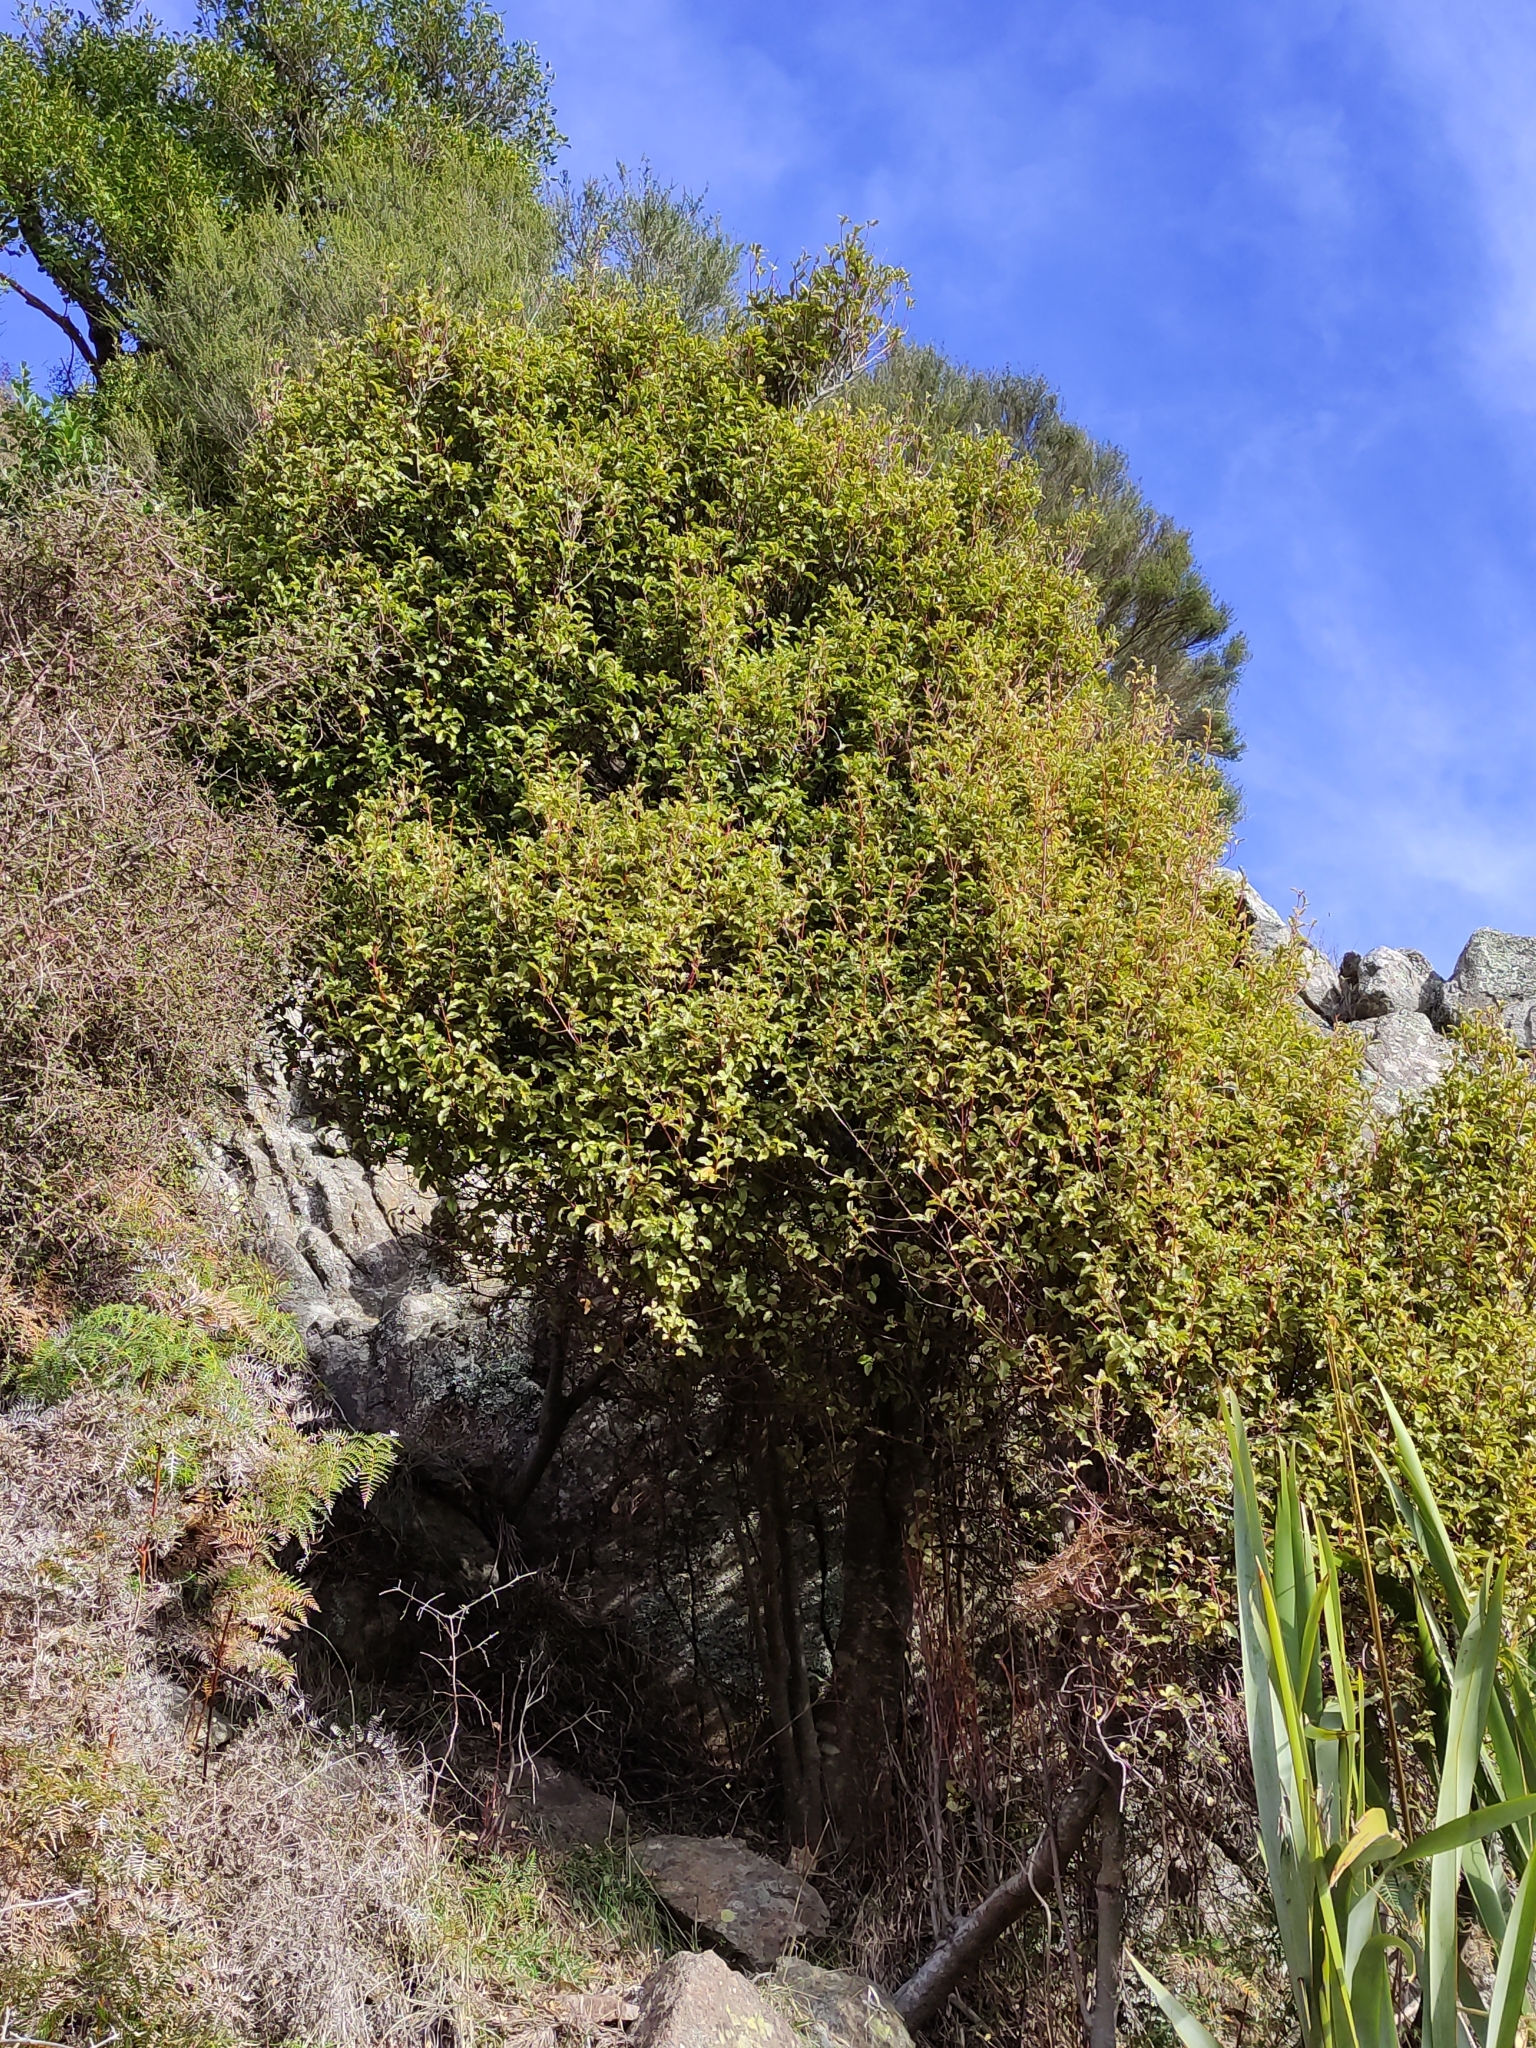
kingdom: Plantae
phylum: Tracheophyta
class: Magnoliopsida
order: Ericales
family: Primulaceae
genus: Myrsine
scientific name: Myrsine australis
